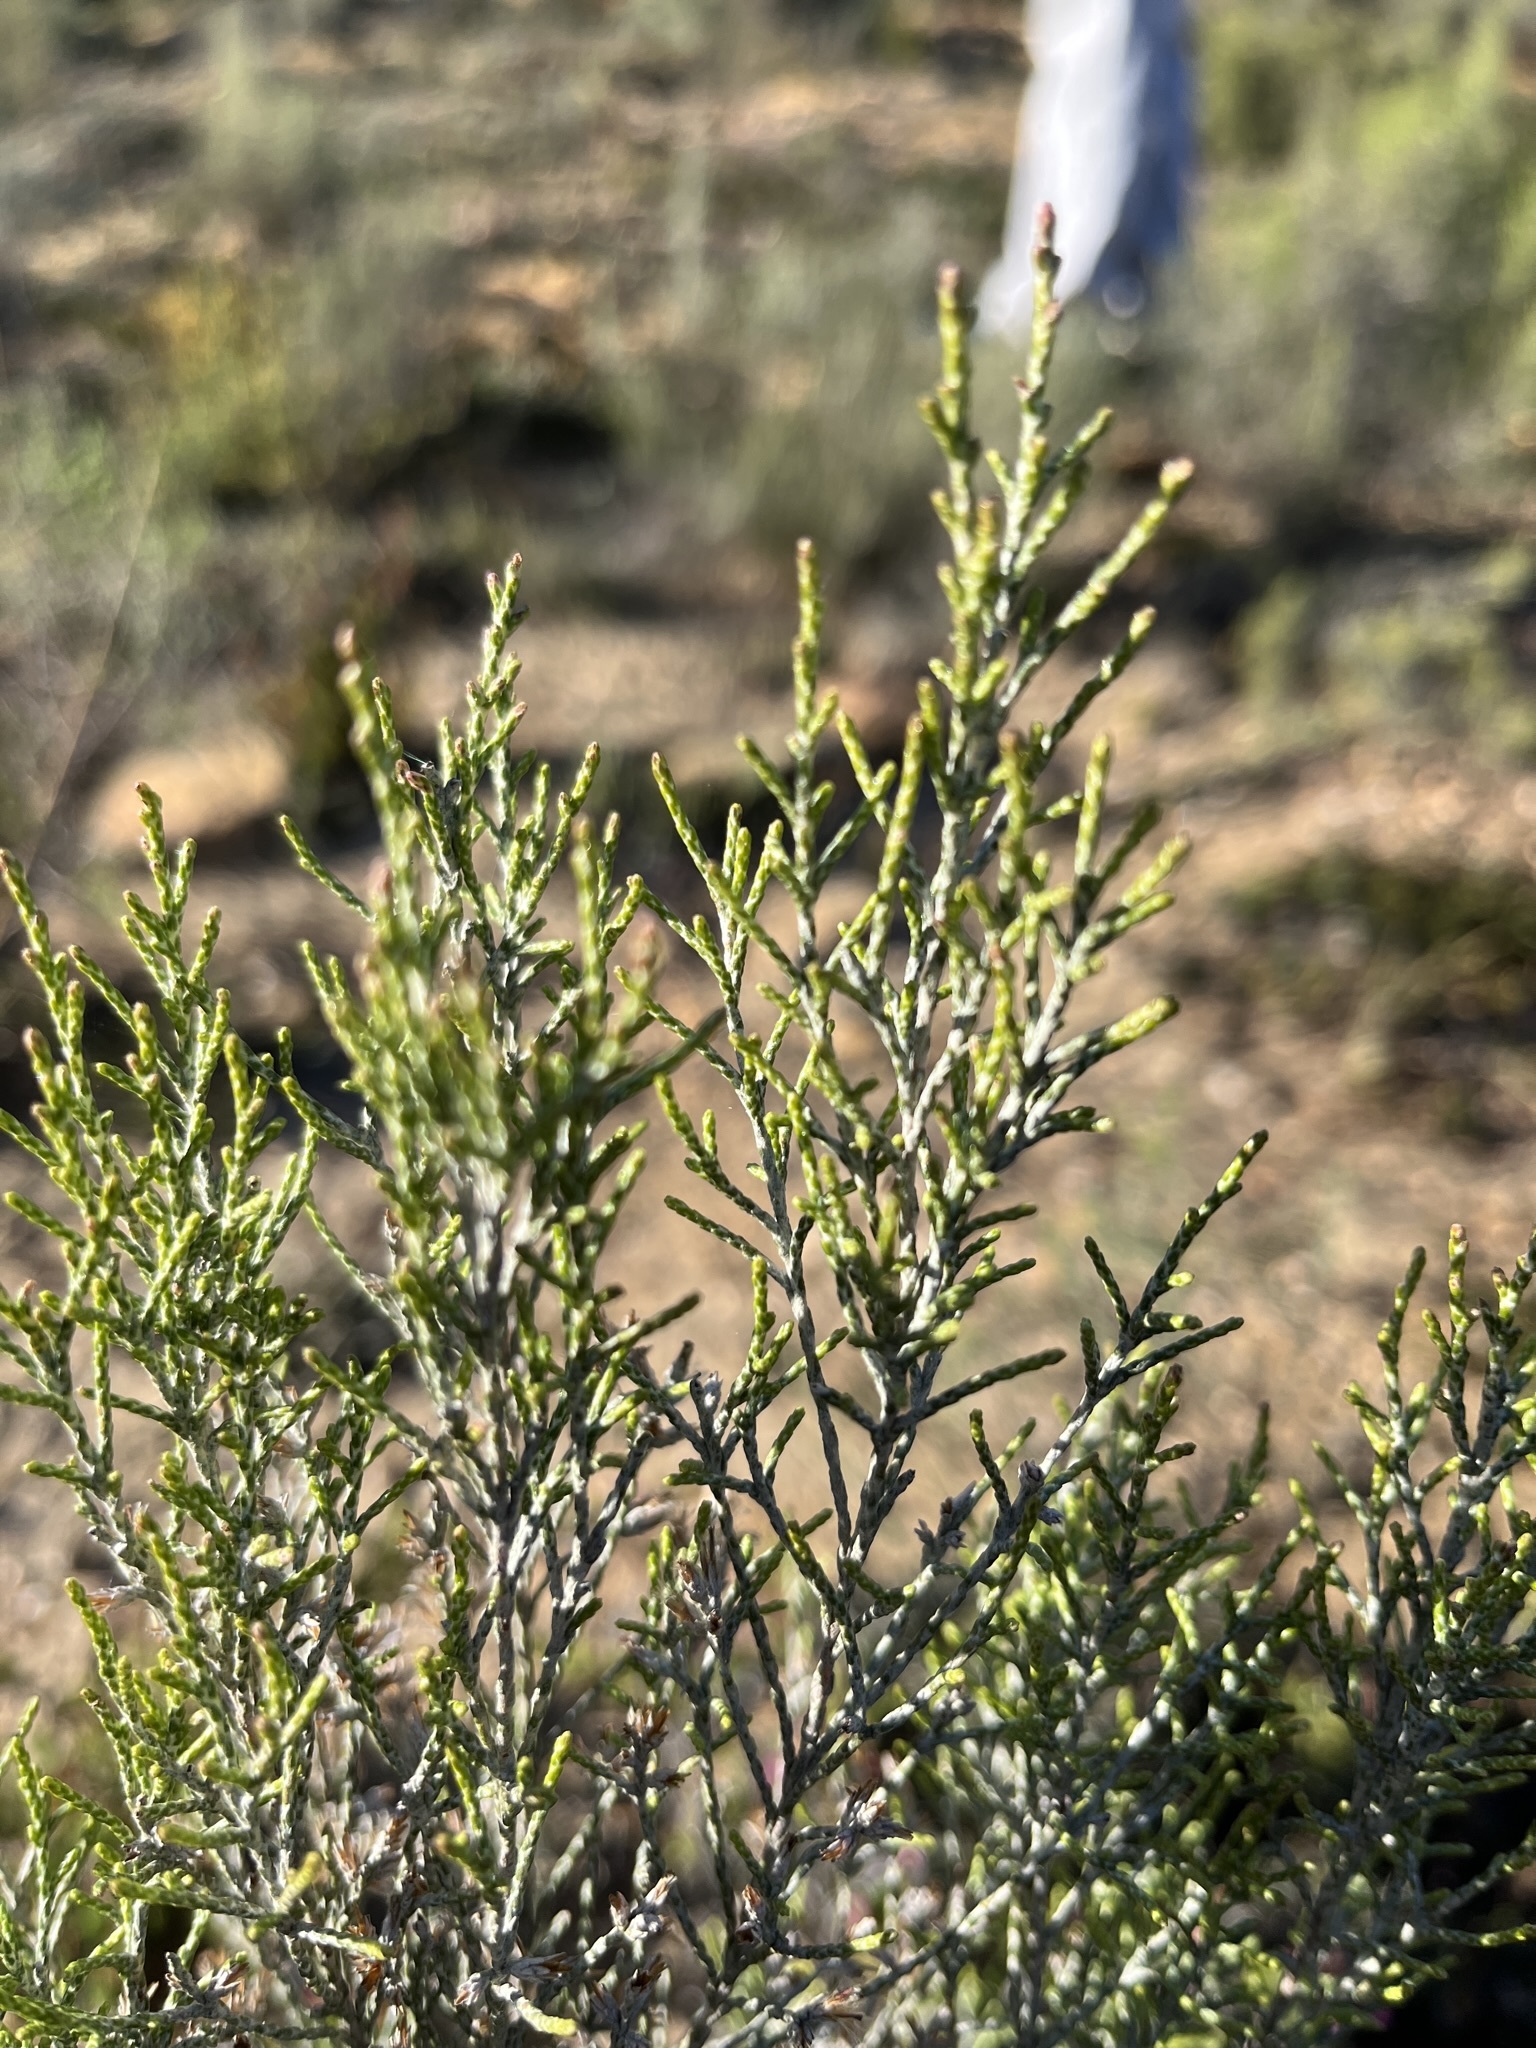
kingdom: Plantae
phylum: Tracheophyta
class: Magnoliopsida
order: Asterales
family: Asteraceae
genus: Dicerothamnus
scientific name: Dicerothamnus rhinocerotis
